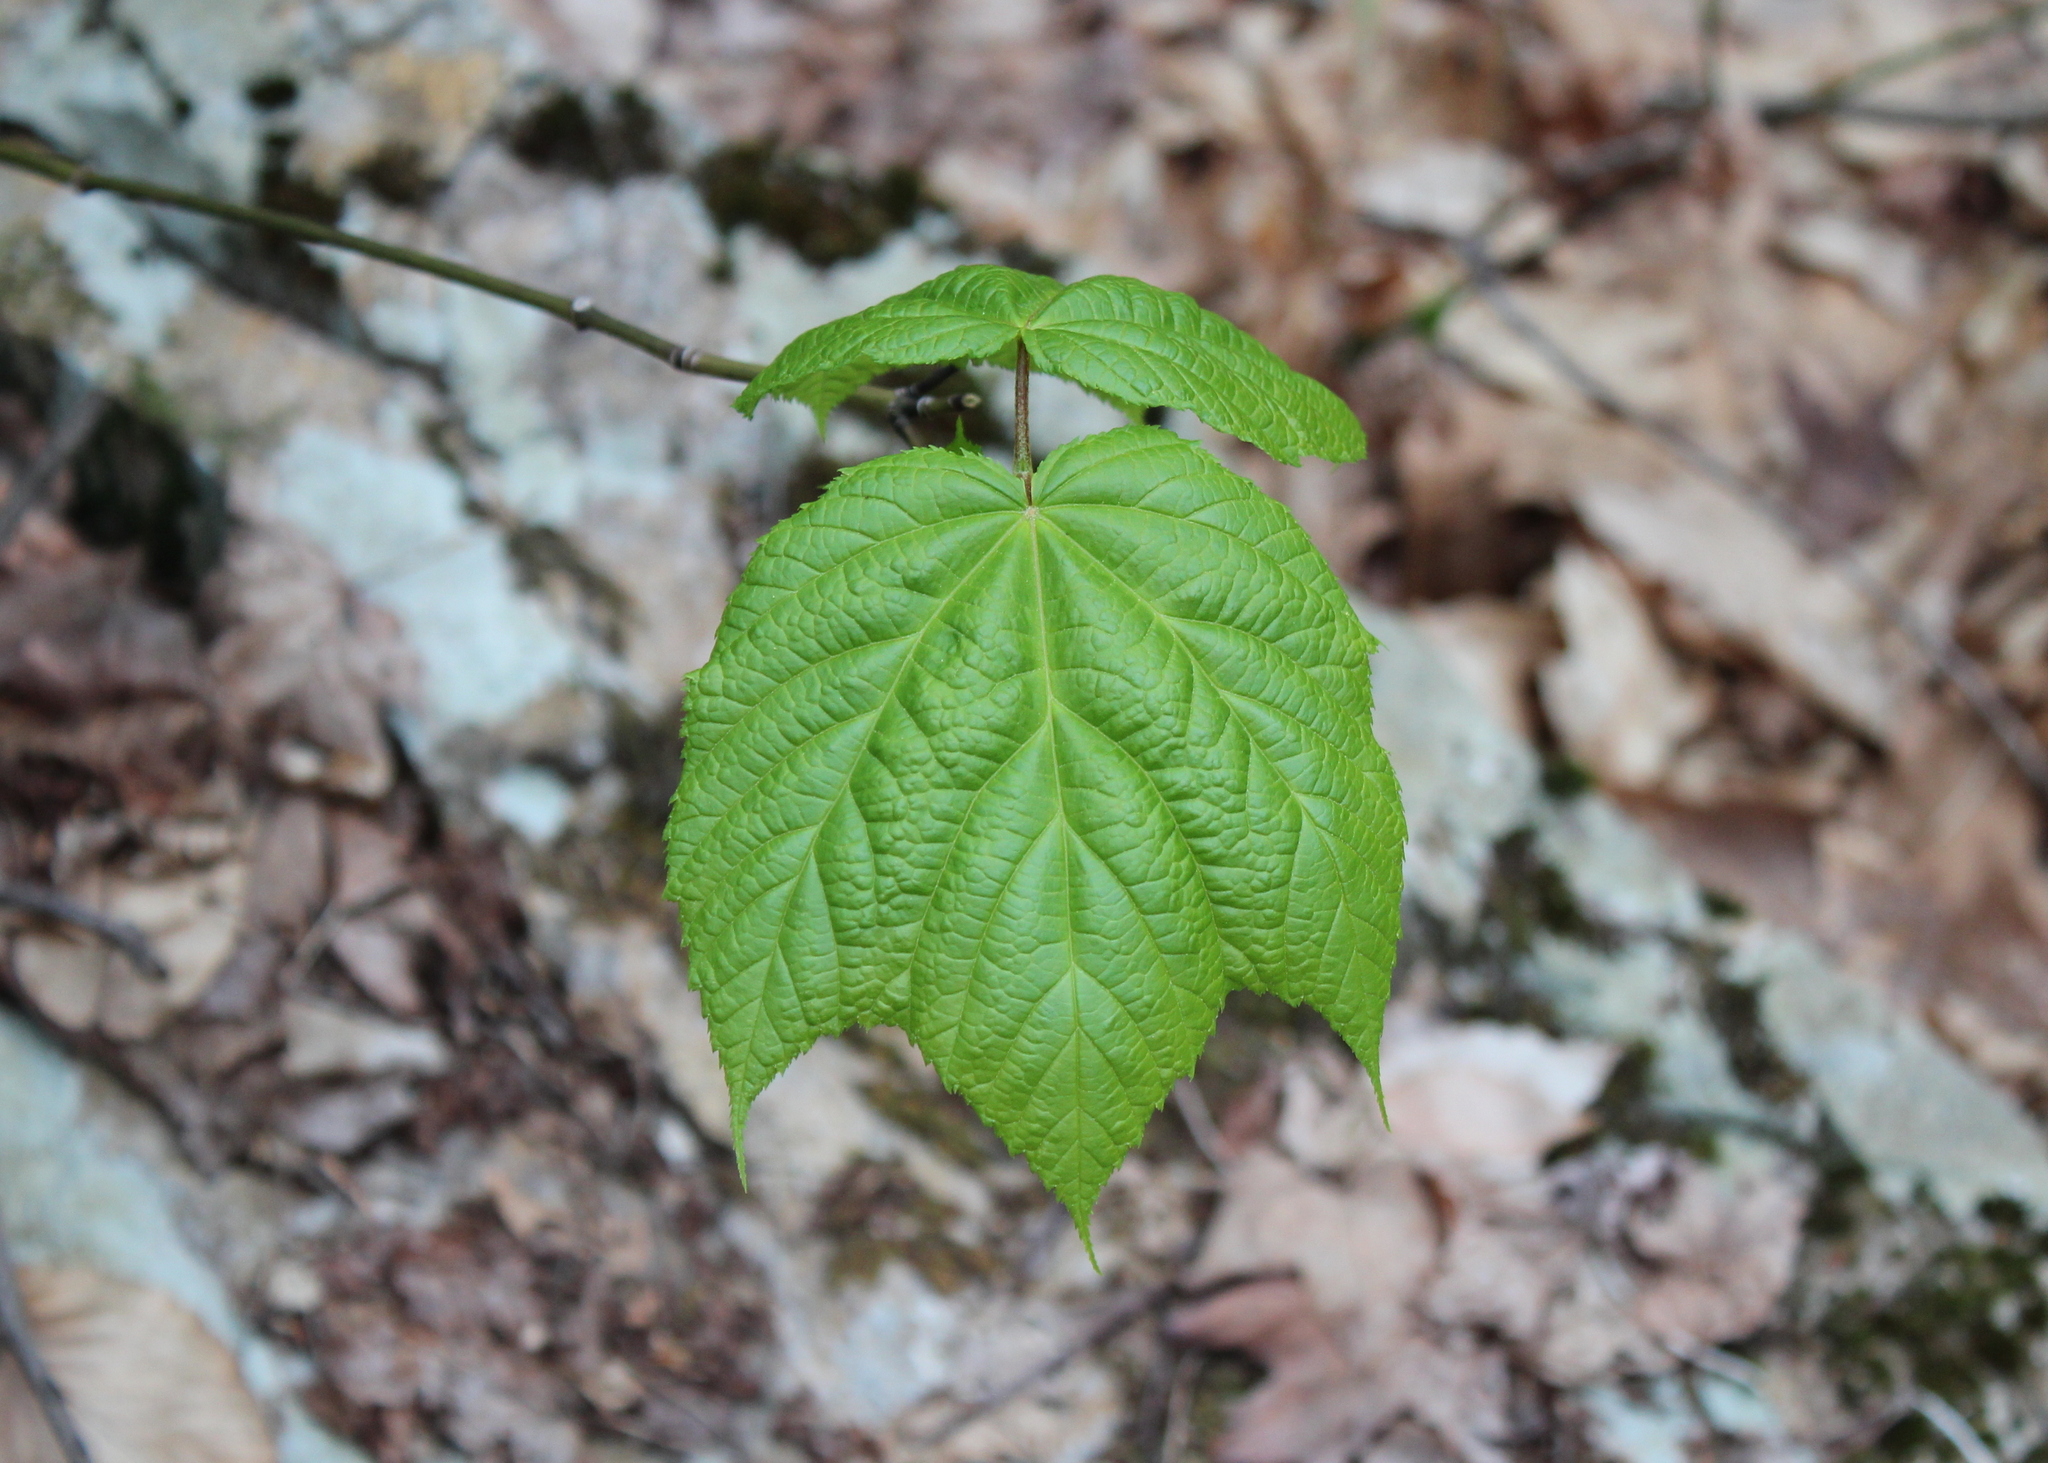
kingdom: Plantae
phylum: Tracheophyta
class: Magnoliopsida
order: Sapindales
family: Sapindaceae
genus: Acer
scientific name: Acer pensylvanicum
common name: Moosewood
